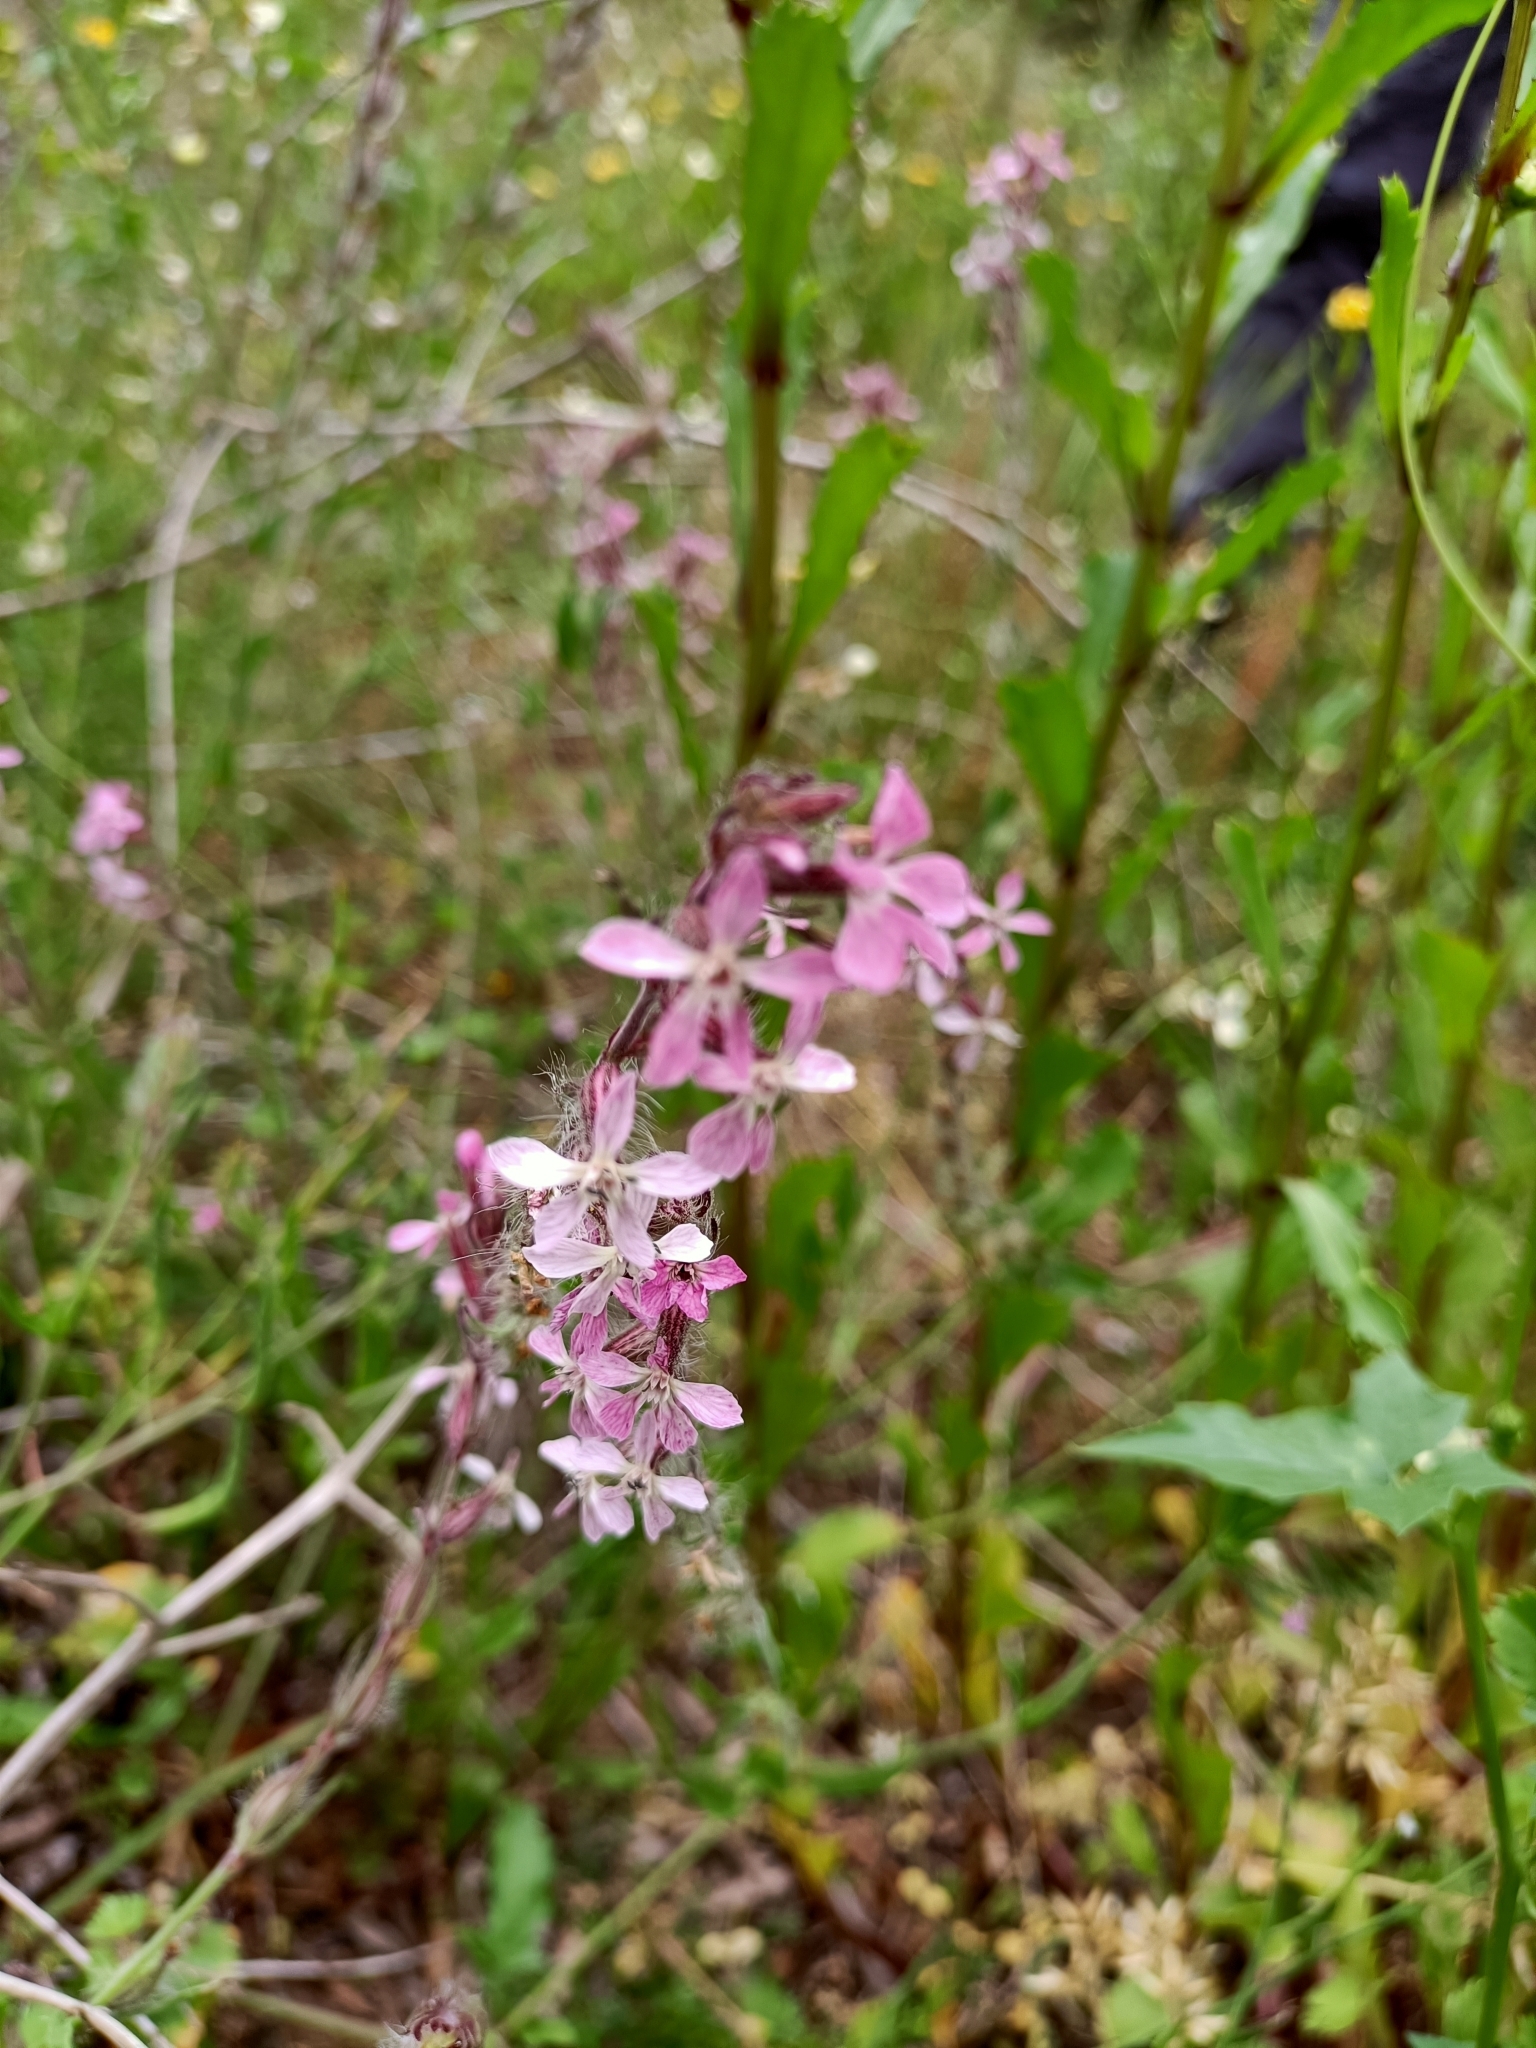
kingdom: Plantae
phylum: Tracheophyta
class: Magnoliopsida
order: Caryophyllales
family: Caryophyllaceae
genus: Silene
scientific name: Silene gallica
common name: Small-flowered catchfly
